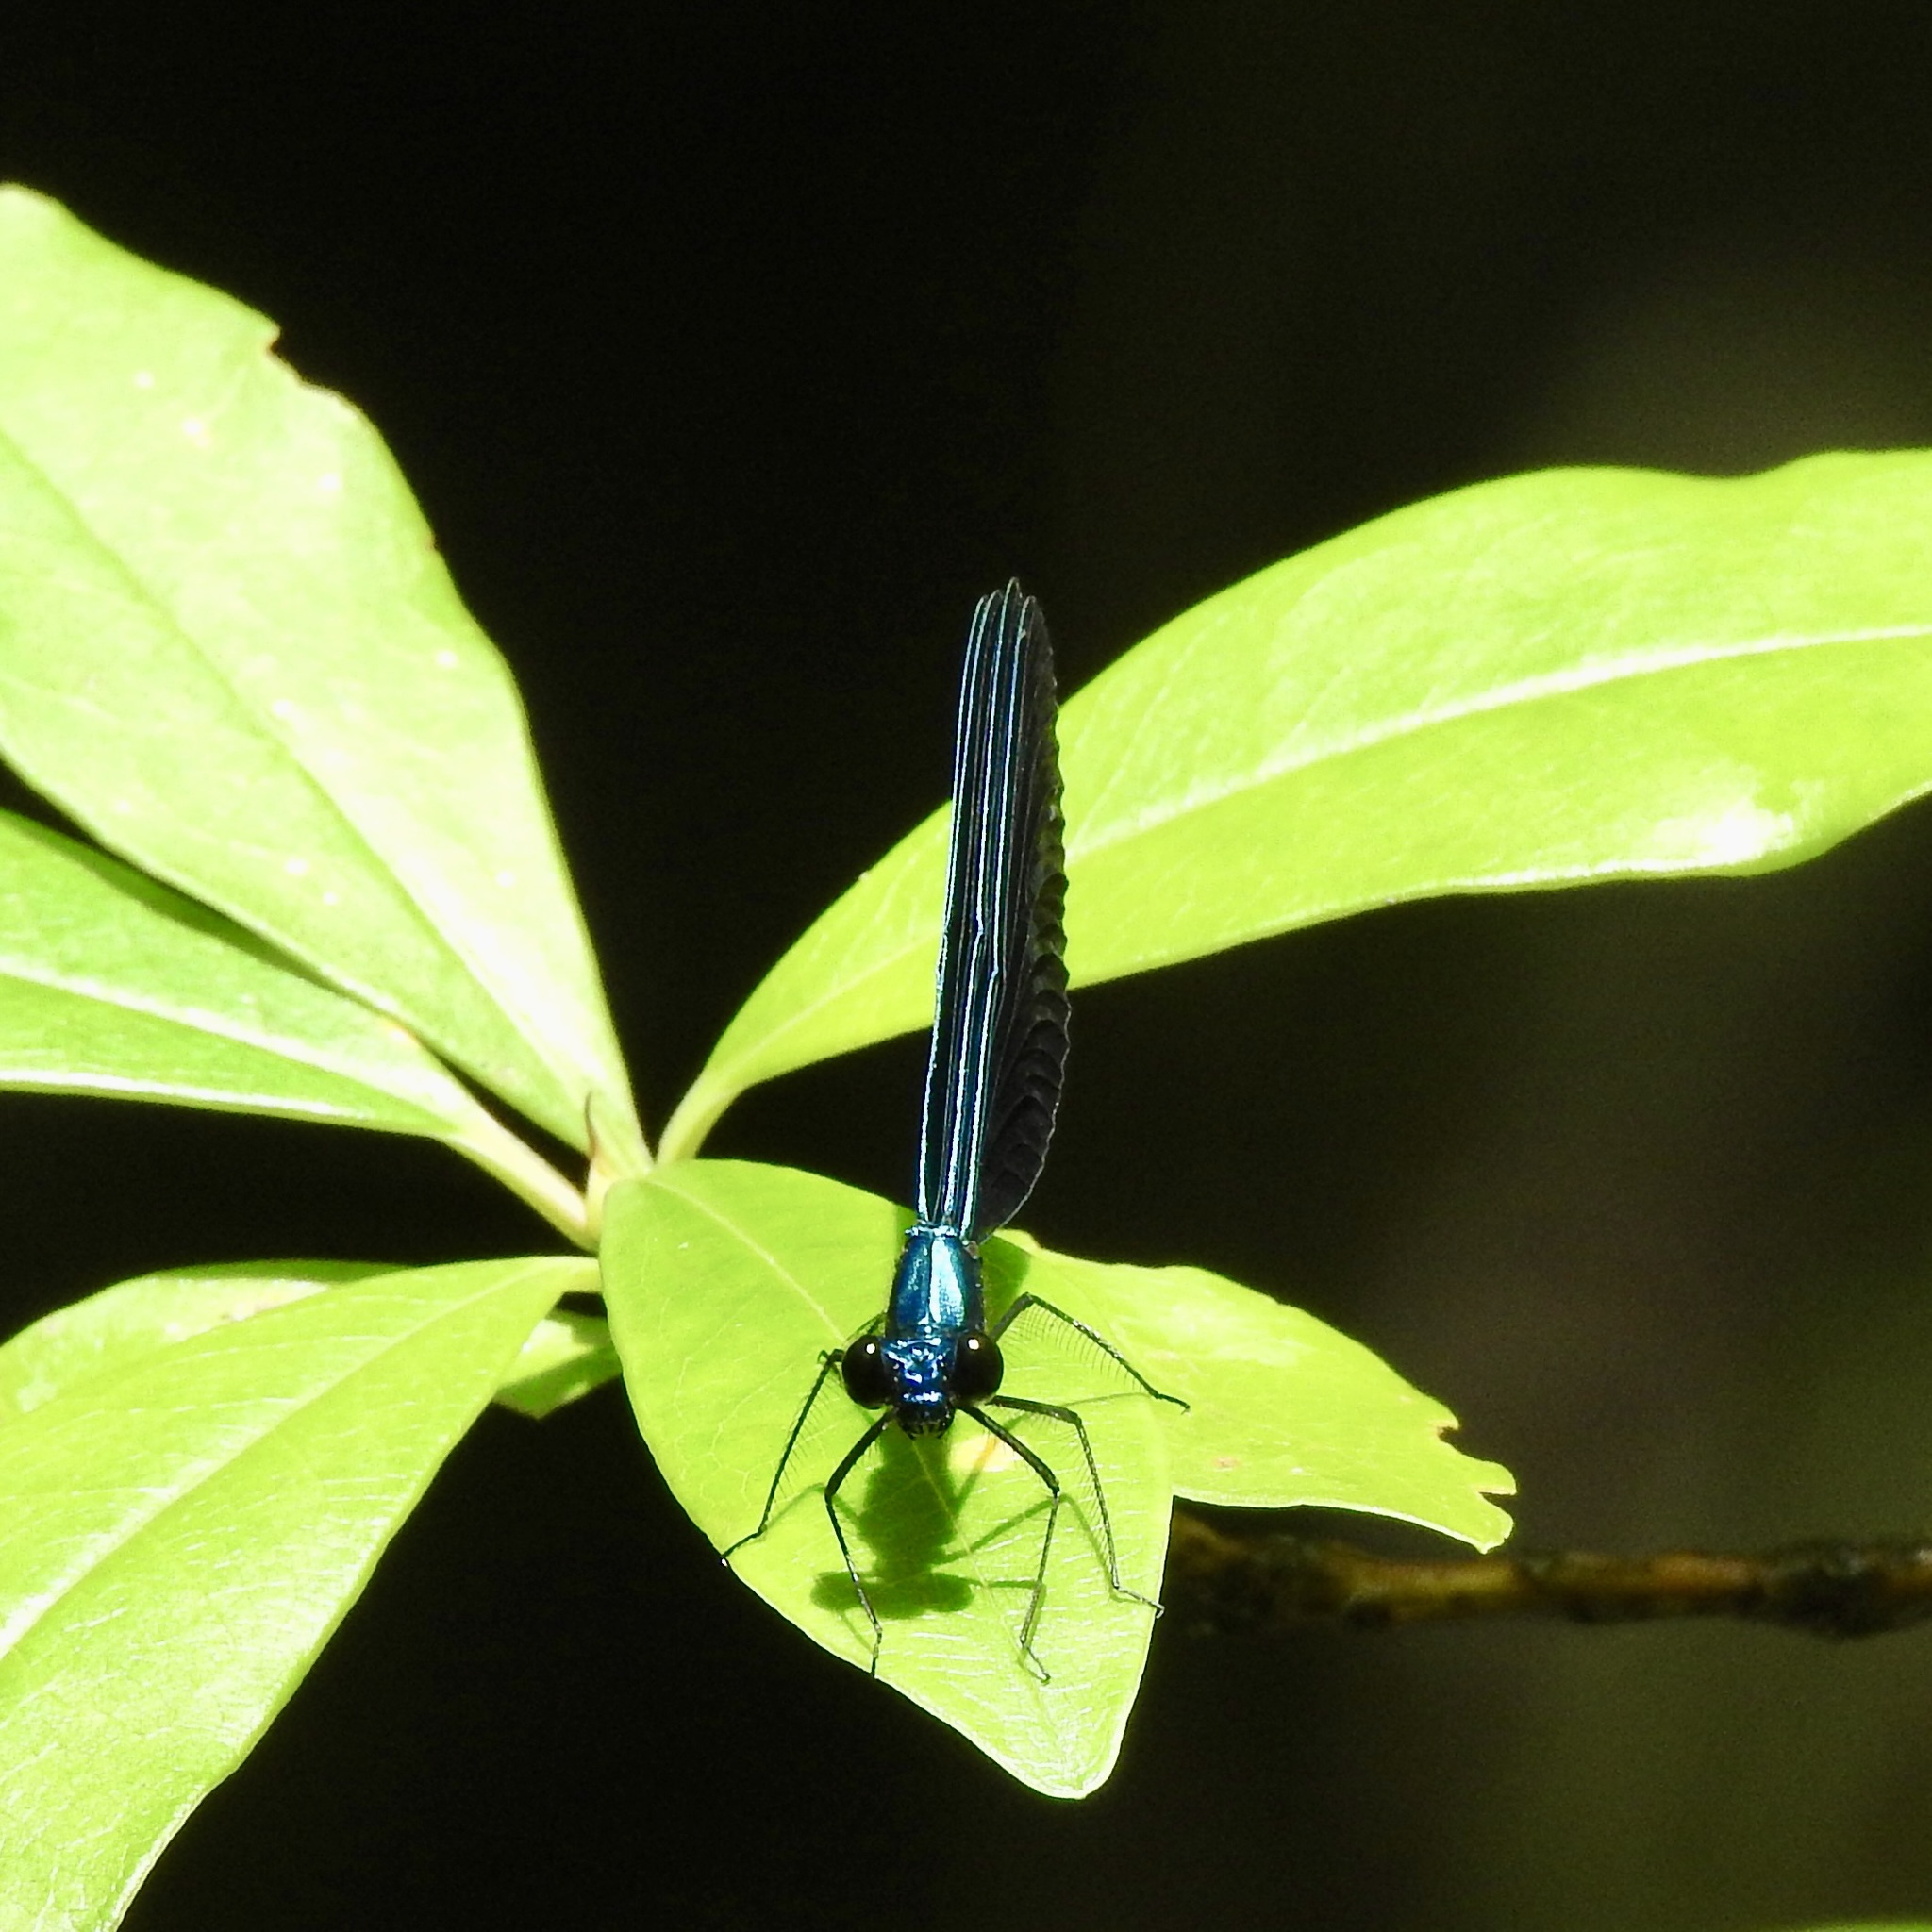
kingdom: Animalia
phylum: Arthropoda
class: Insecta
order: Odonata
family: Calopterygidae
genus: Calopteryx
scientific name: Calopteryx maculata
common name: Ebony jewelwing
